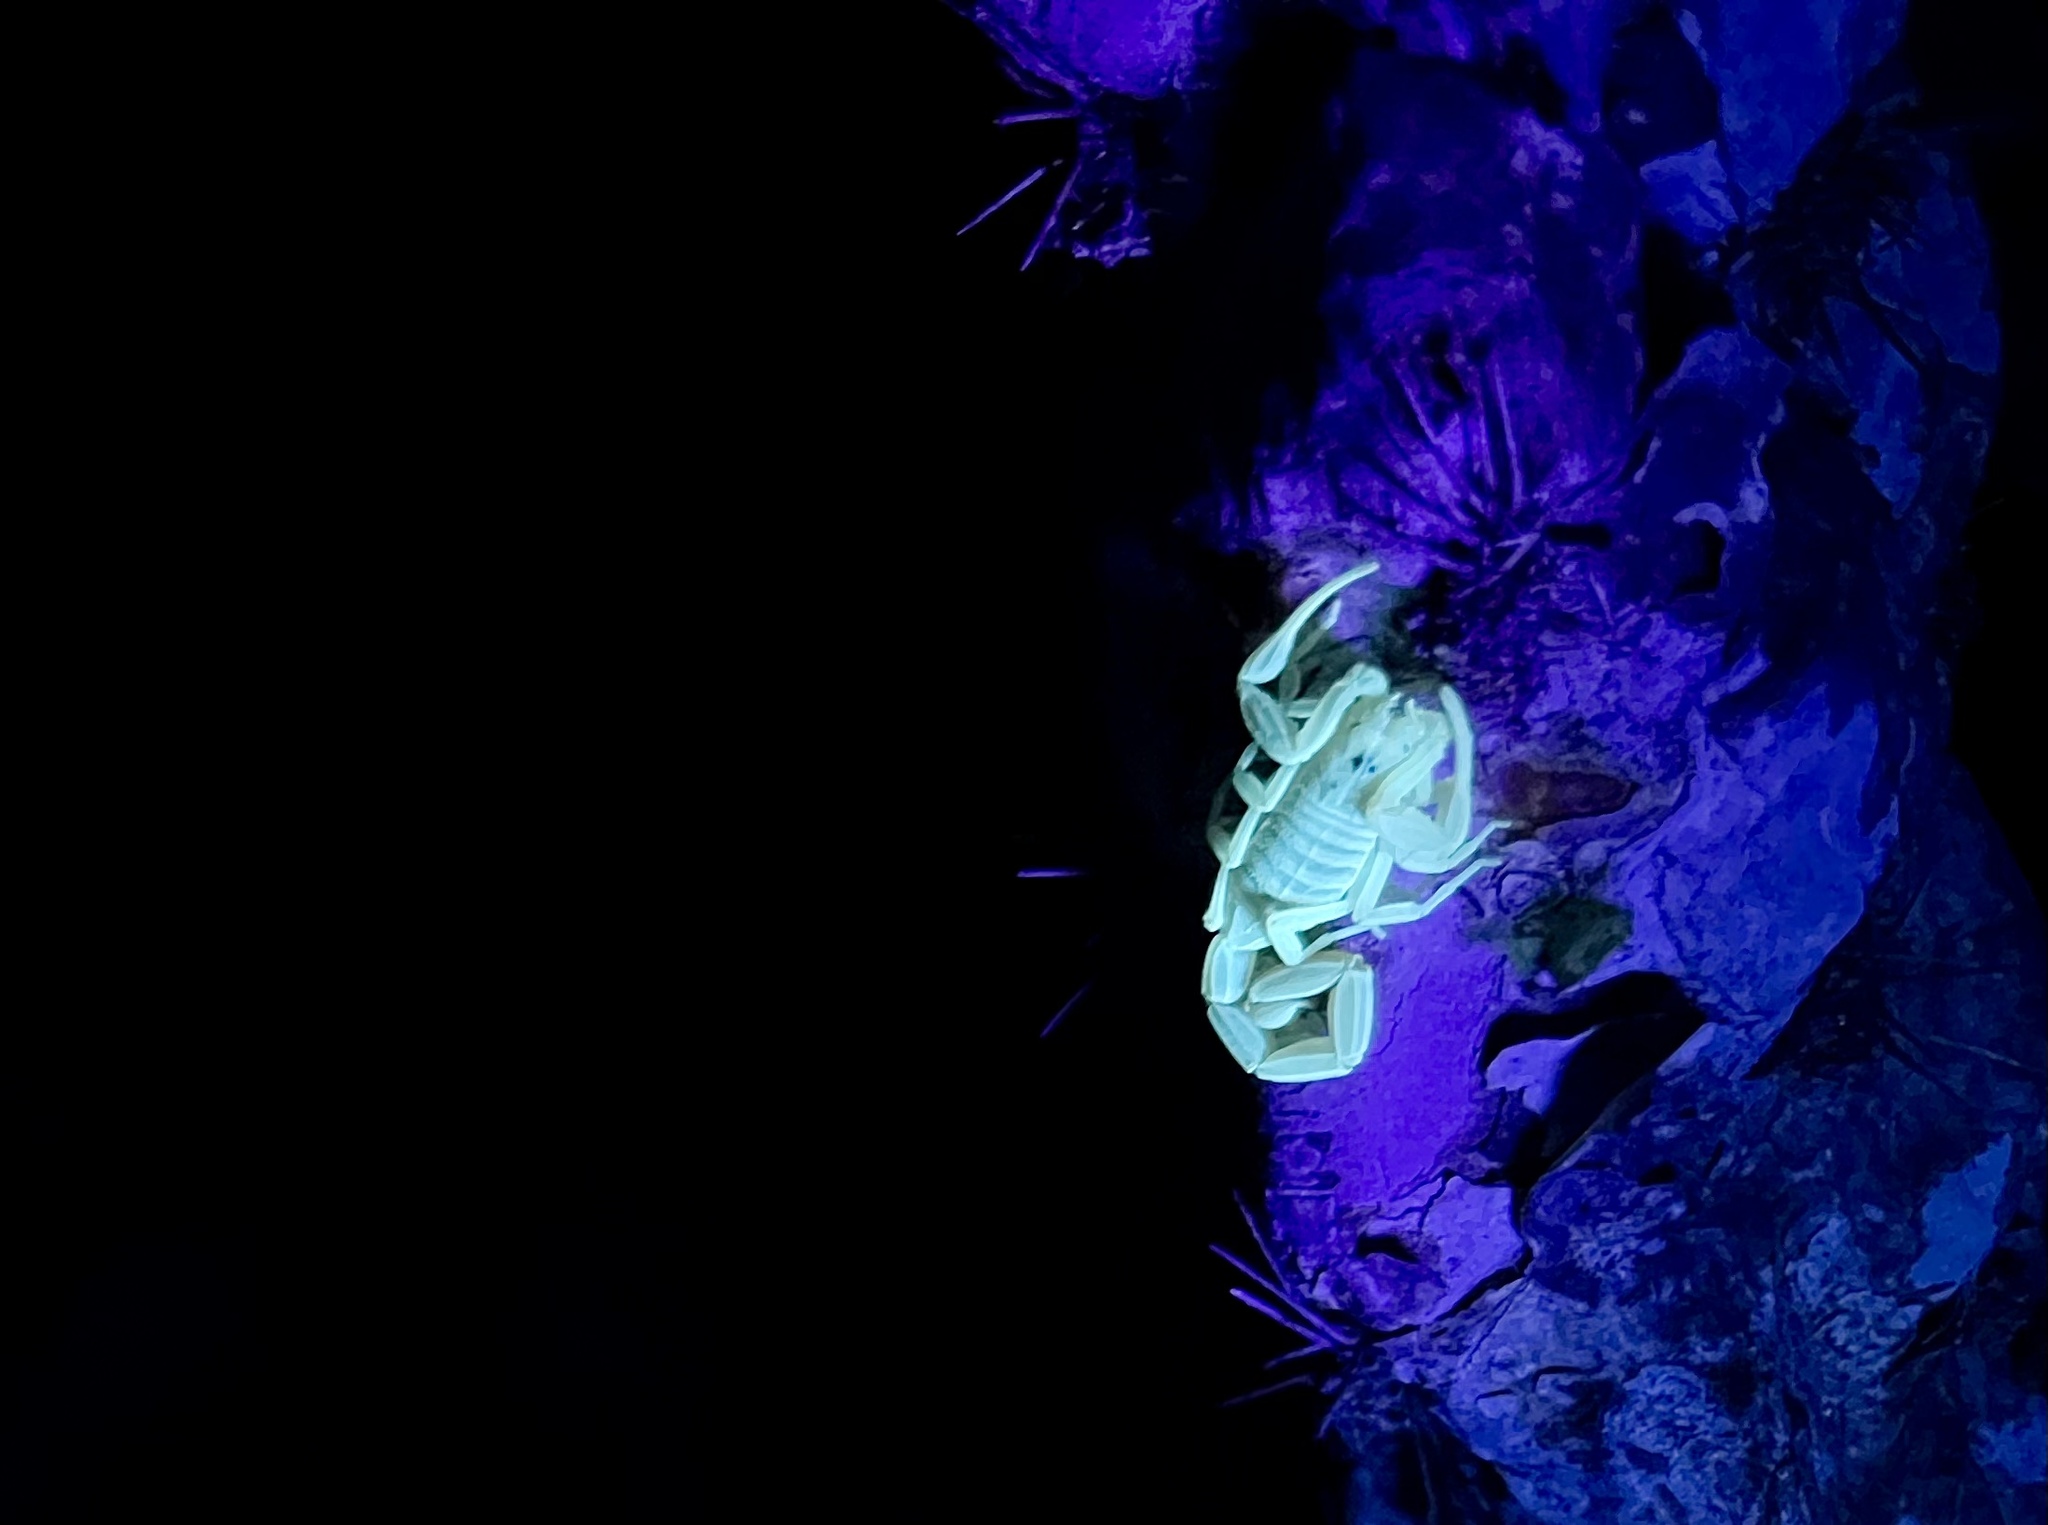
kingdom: Animalia
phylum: Arthropoda
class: Arachnida
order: Scorpiones
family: Buthidae
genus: Centruroides
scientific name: Centruroides exilicauda
